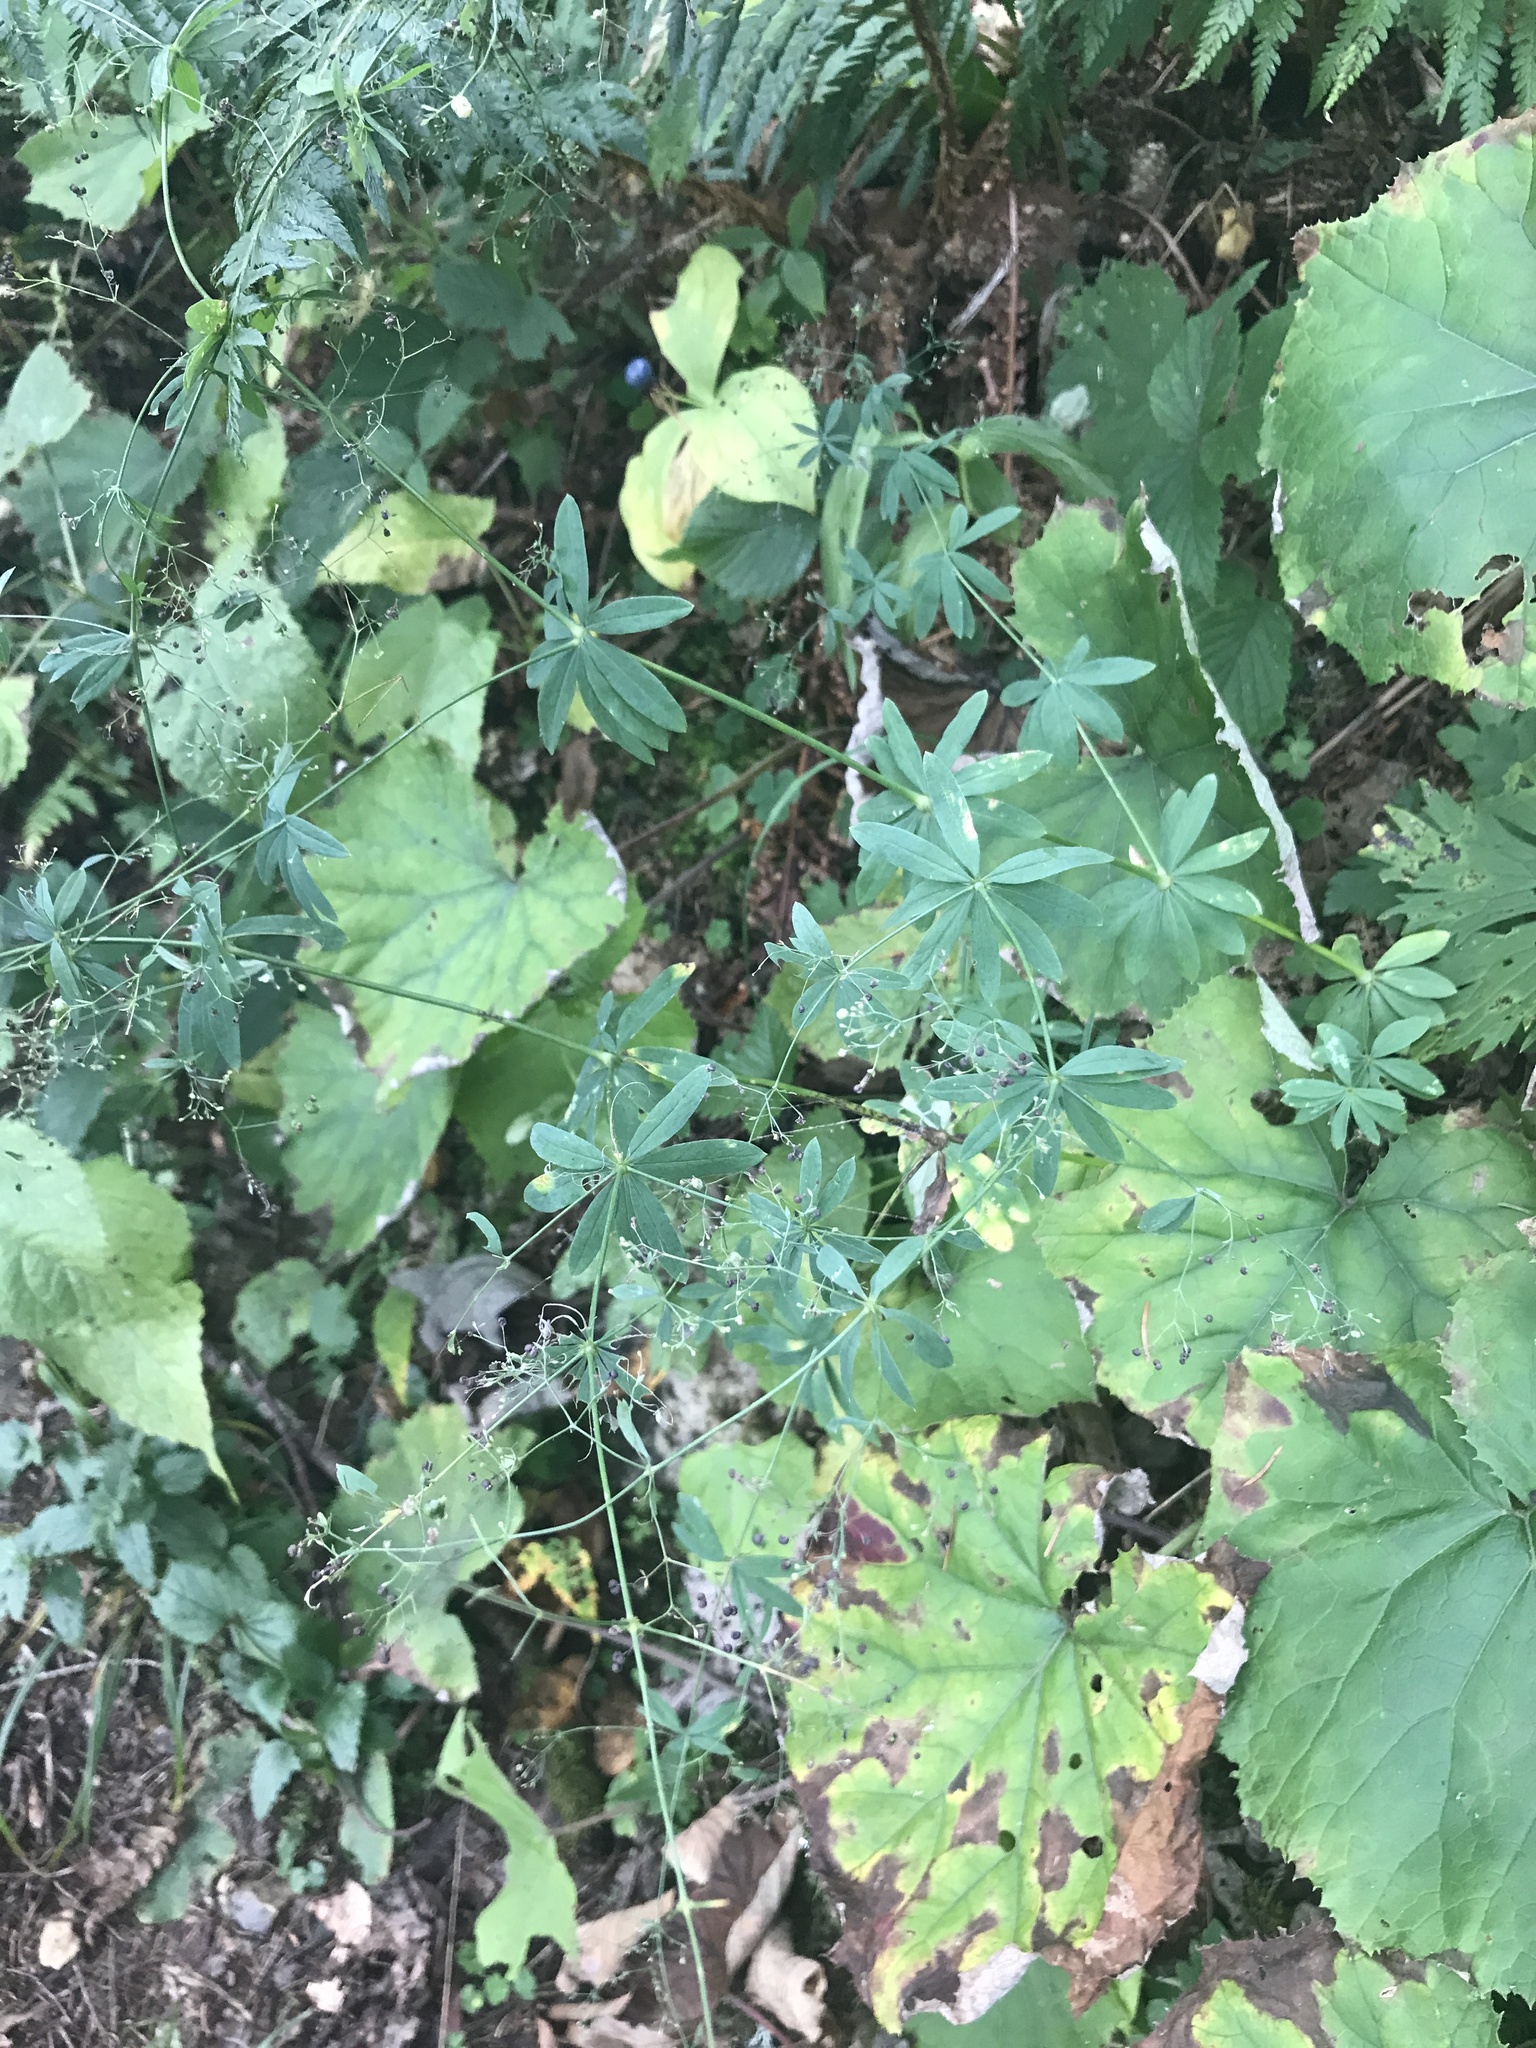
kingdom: Plantae
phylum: Tracheophyta
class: Magnoliopsida
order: Gentianales
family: Rubiaceae
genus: Galium
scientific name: Galium sylvaticum
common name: Wood bedstraw
